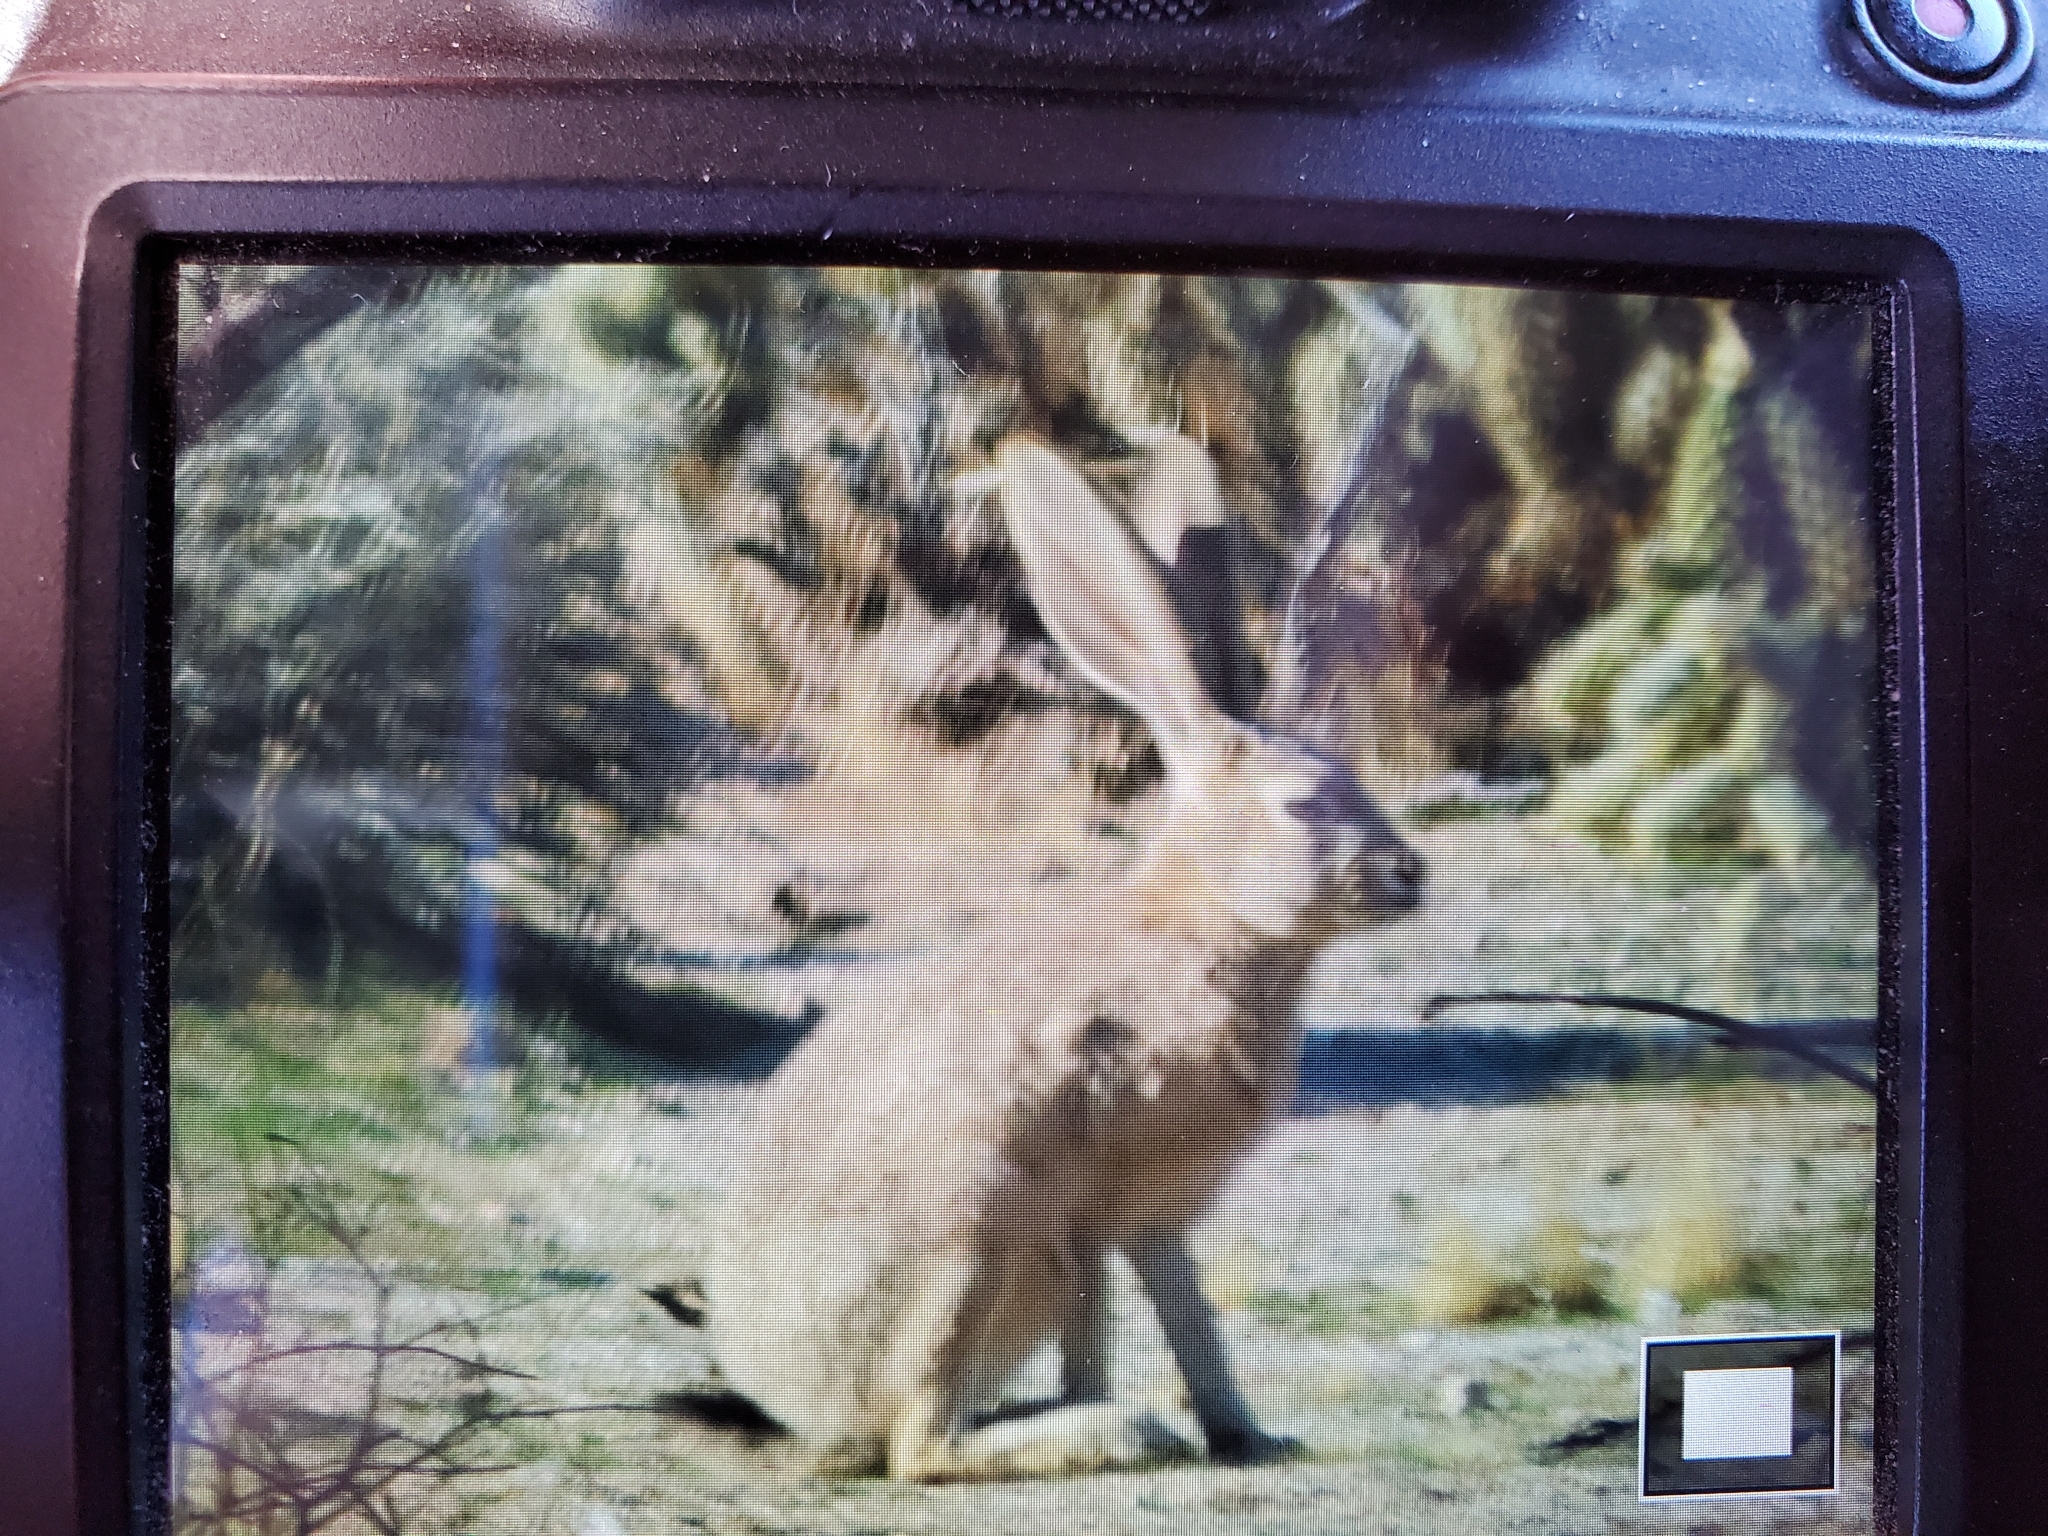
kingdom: Animalia
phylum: Chordata
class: Mammalia
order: Lagomorpha
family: Leporidae
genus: Lepus
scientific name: Lepus californicus
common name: Black-tailed jackrabbit
